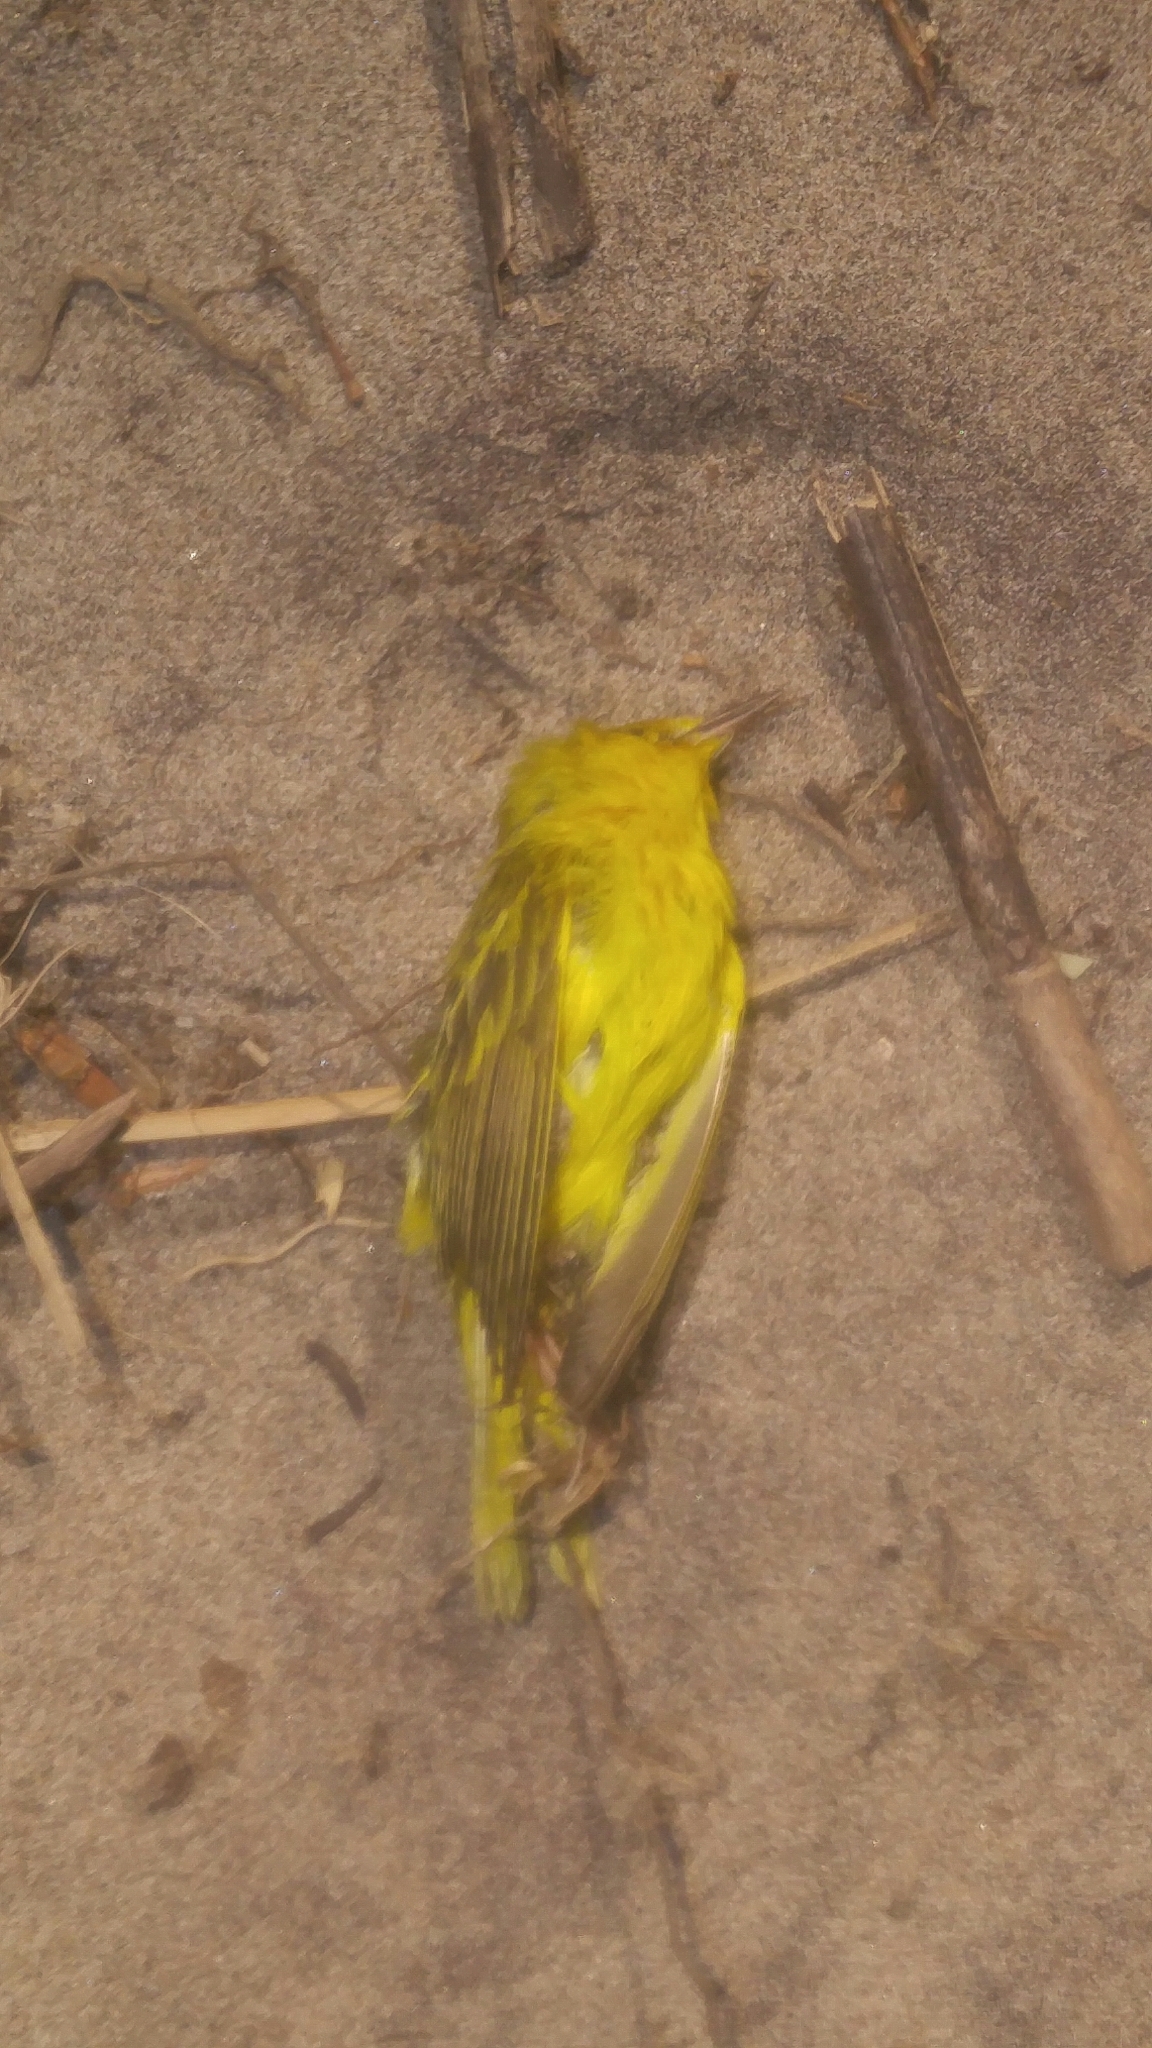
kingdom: Animalia
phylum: Chordata
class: Aves
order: Passeriformes
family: Parulidae
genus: Setophaga
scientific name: Setophaga petechia
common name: Yellow warbler
